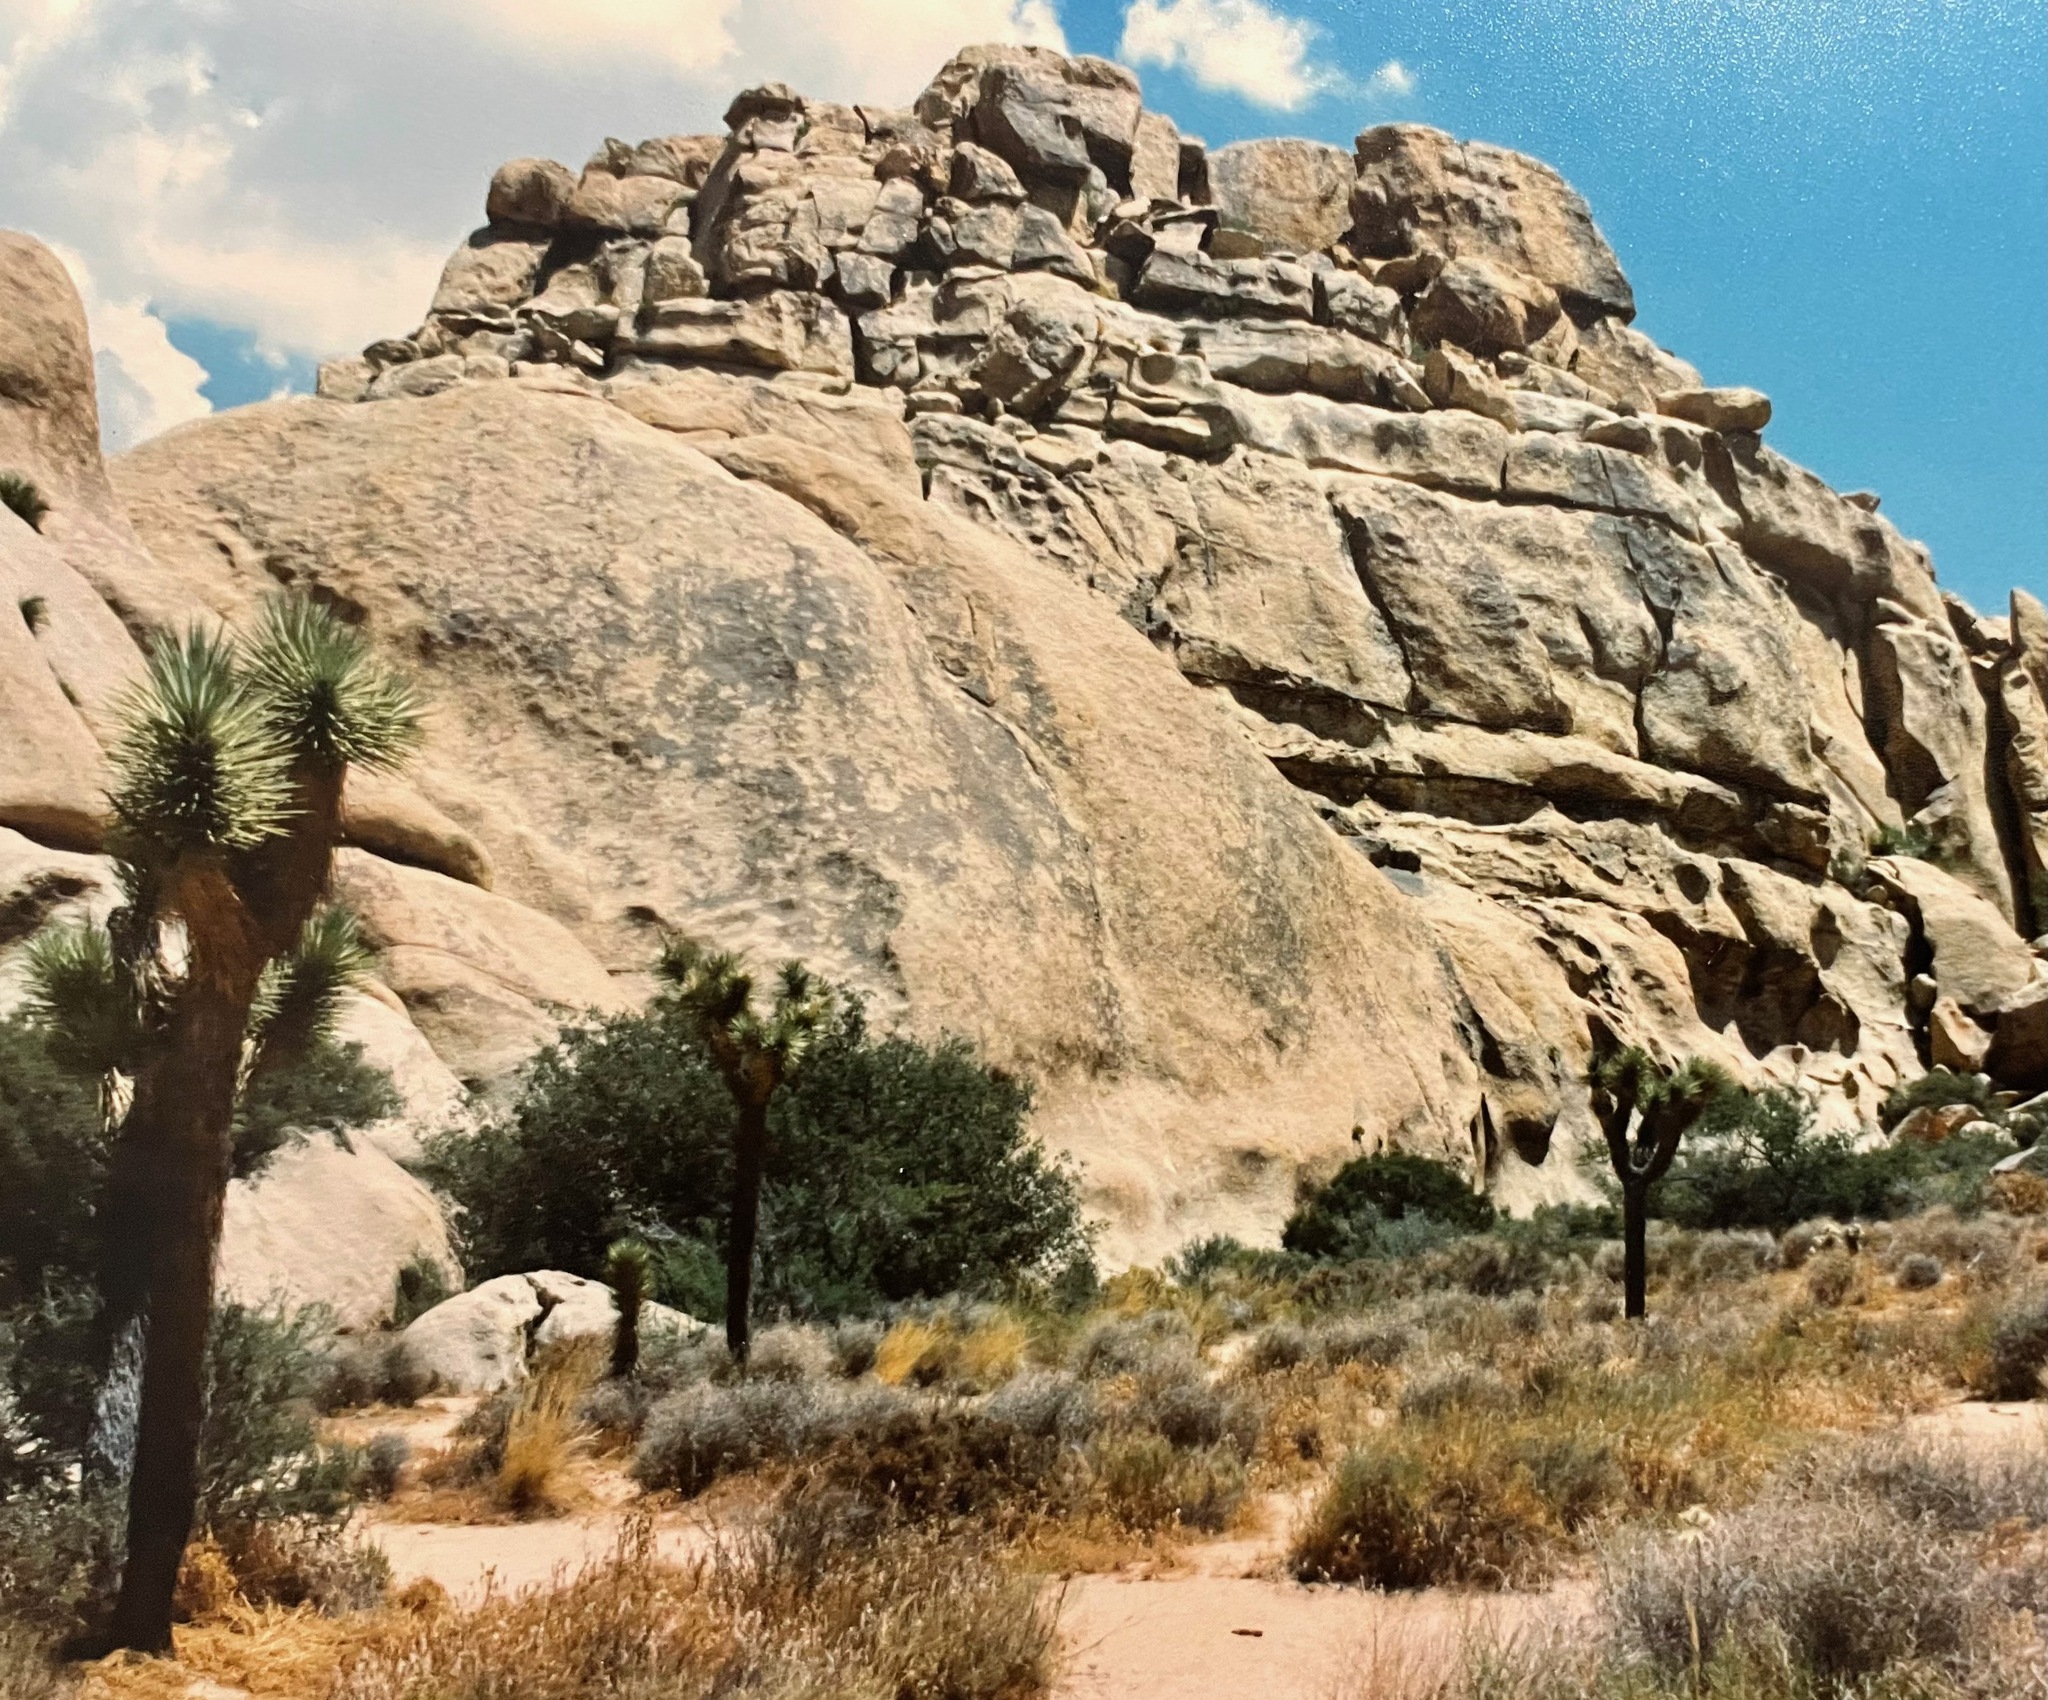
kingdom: Plantae
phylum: Tracheophyta
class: Liliopsida
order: Asparagales
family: Asparagaceae
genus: Yucca
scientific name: Yucca brevifolia
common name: Joshua tree
